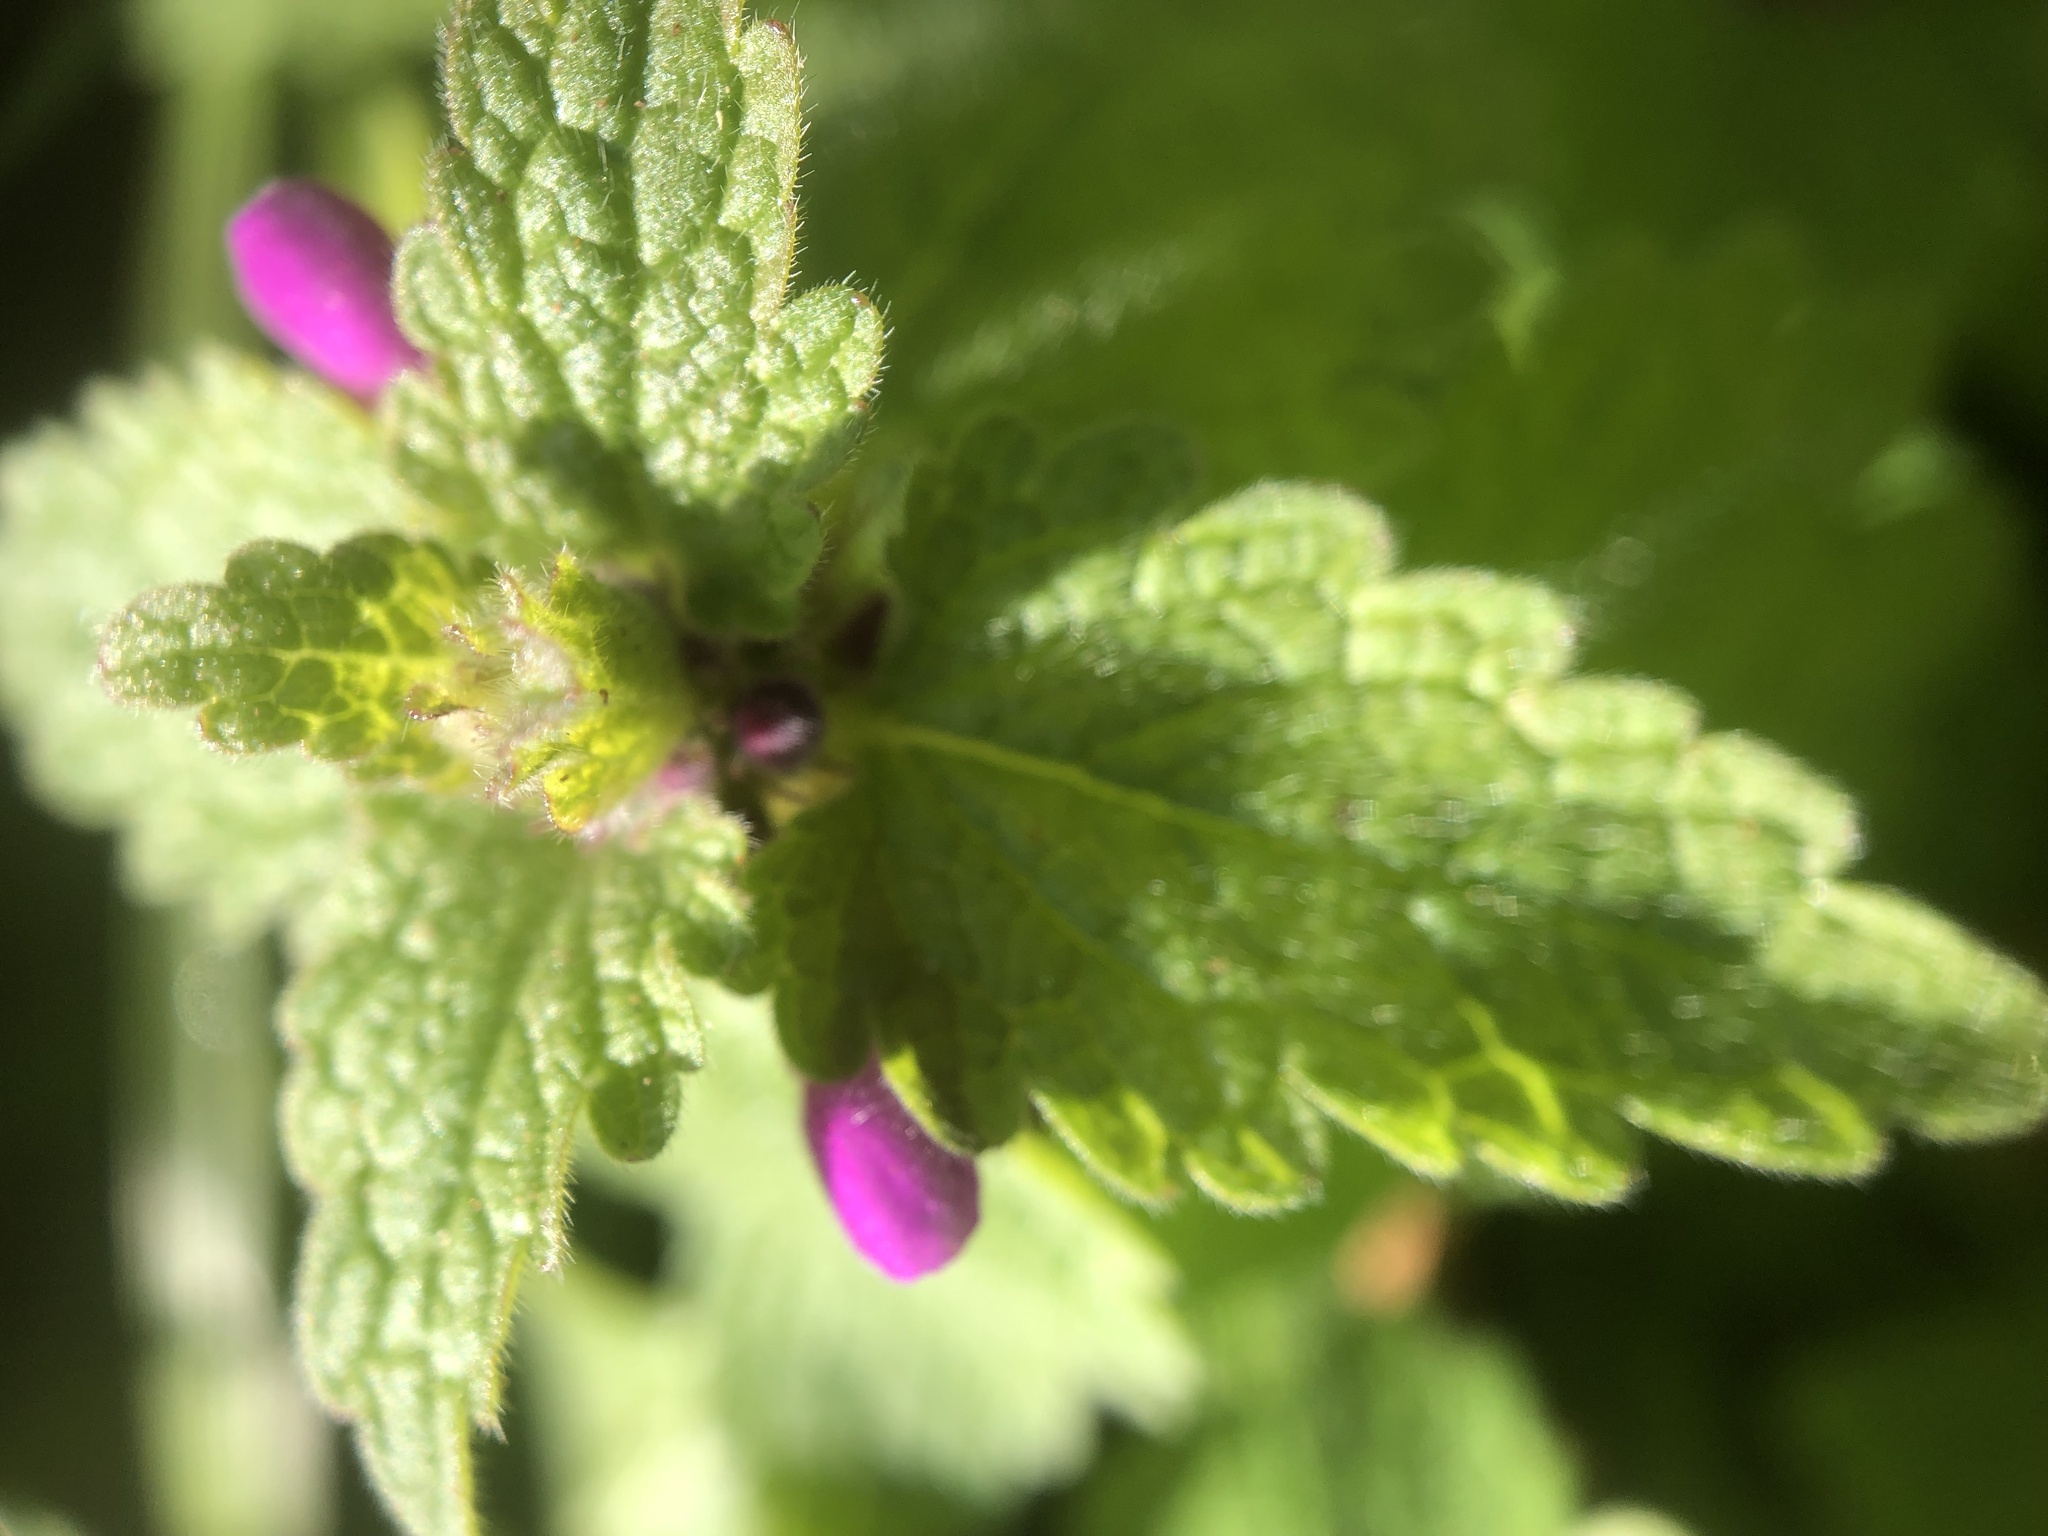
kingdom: Plantae
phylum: Tracheophyta
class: Magnoliopsida
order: Lamiales
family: Lamiaceae
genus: Lamium
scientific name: Lamium purpureum
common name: Red dead-nettle
